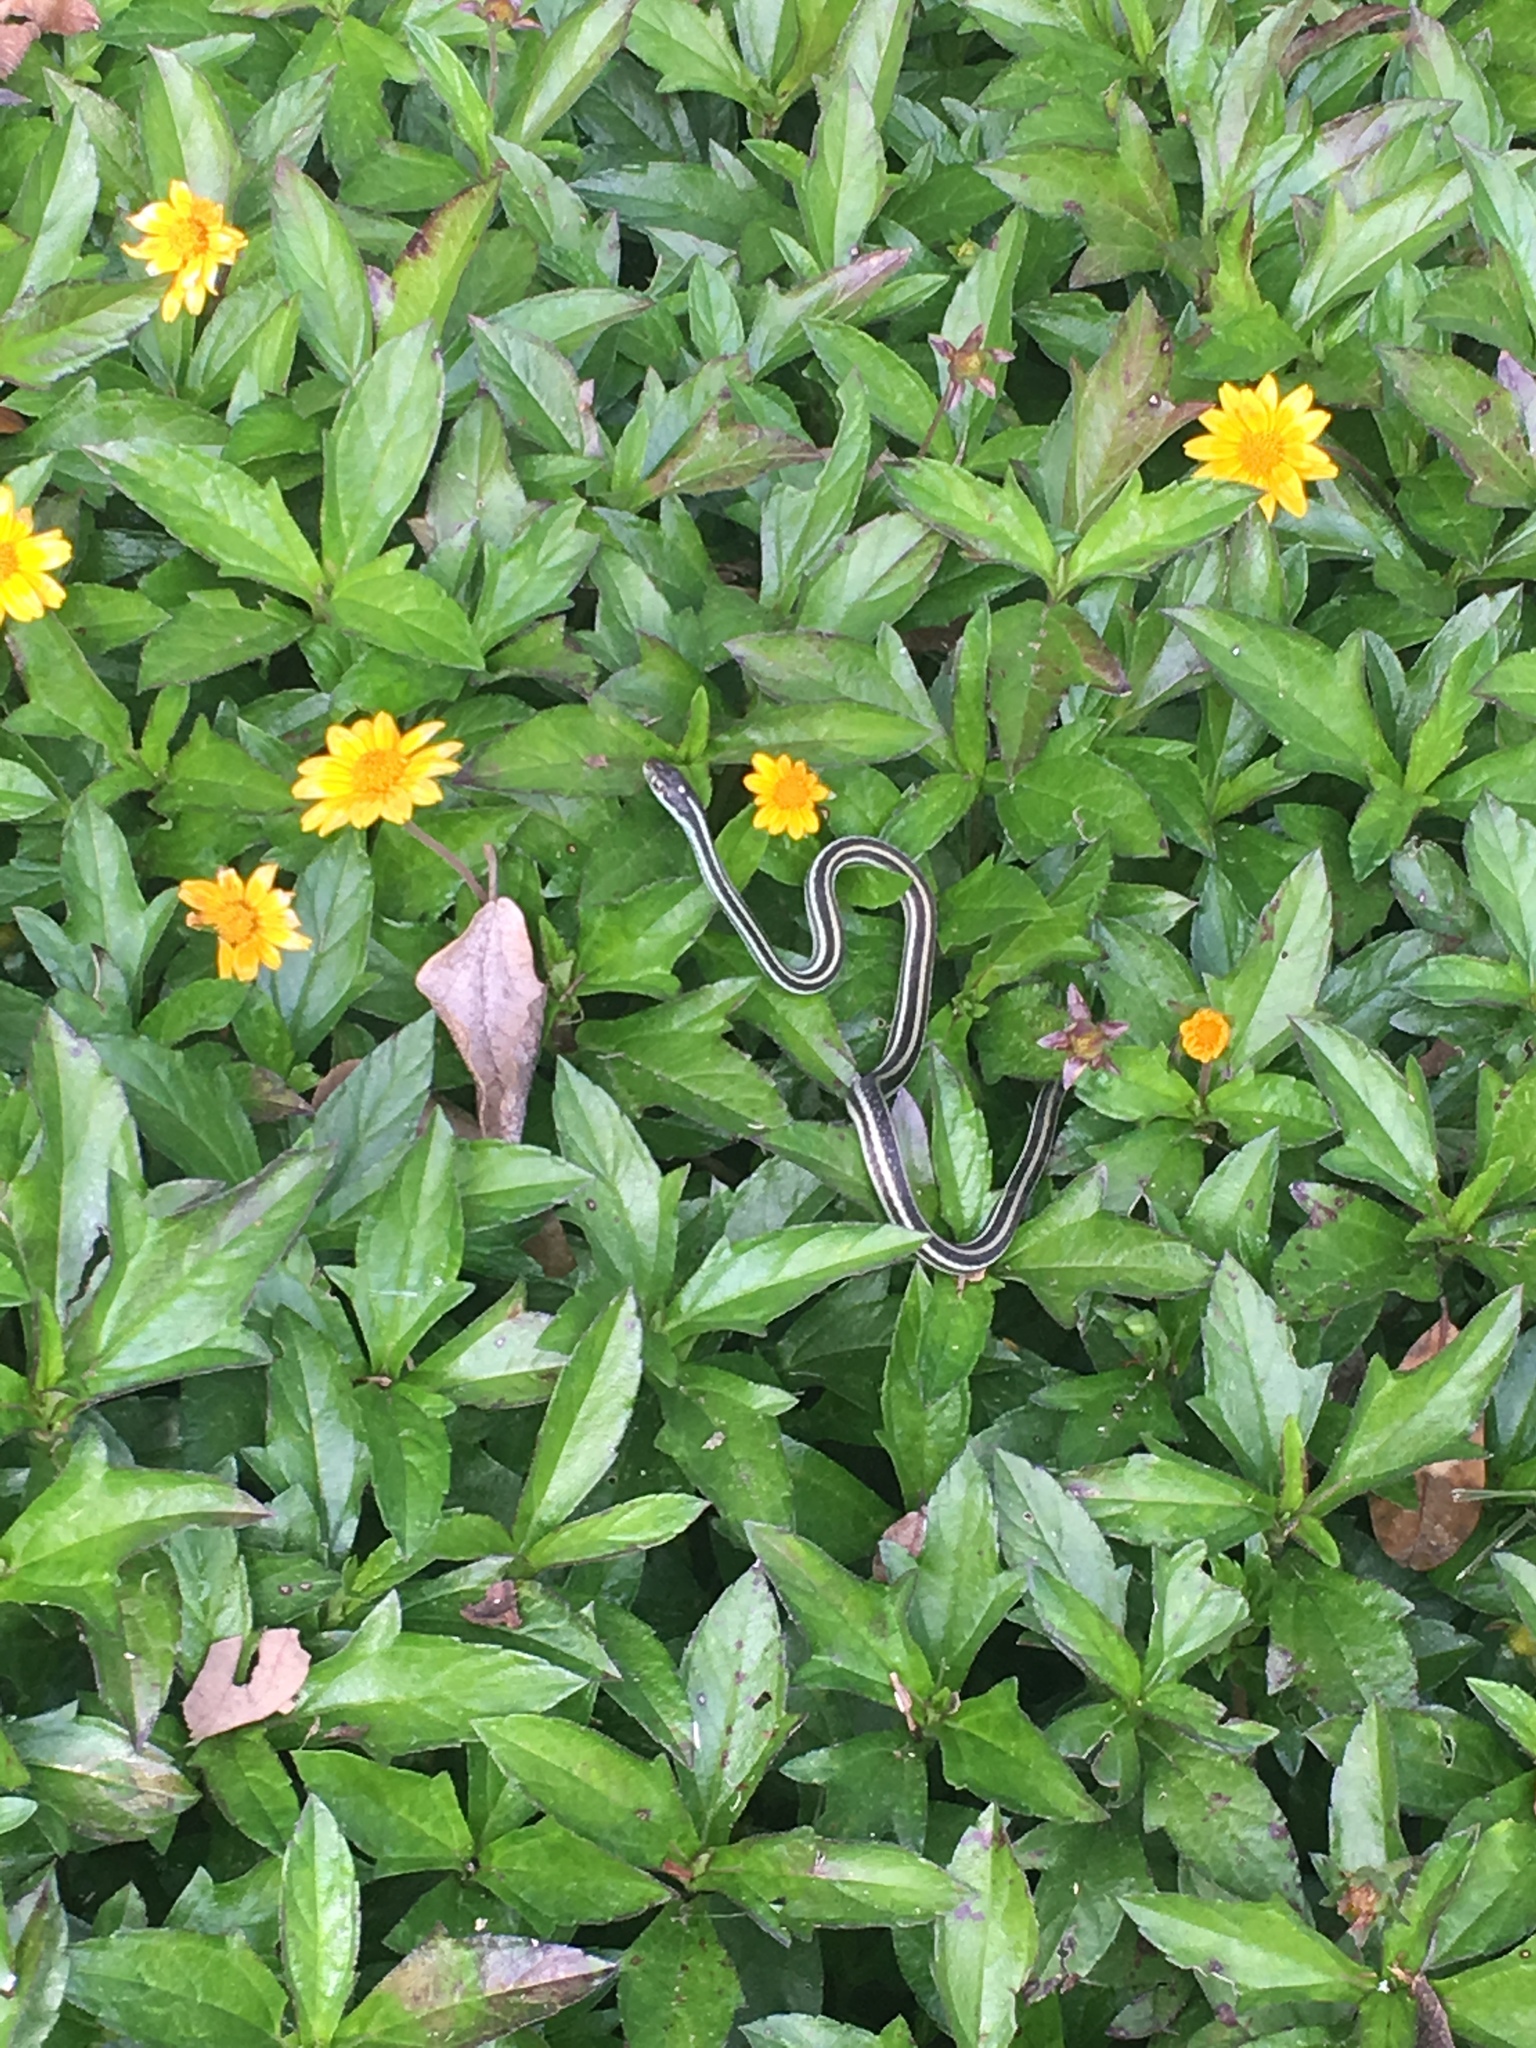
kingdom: Animalia
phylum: Chordata
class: Squamata
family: Colubridae
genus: Thamnophis
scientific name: Thamnophis proximus
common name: Western ribbon snake
